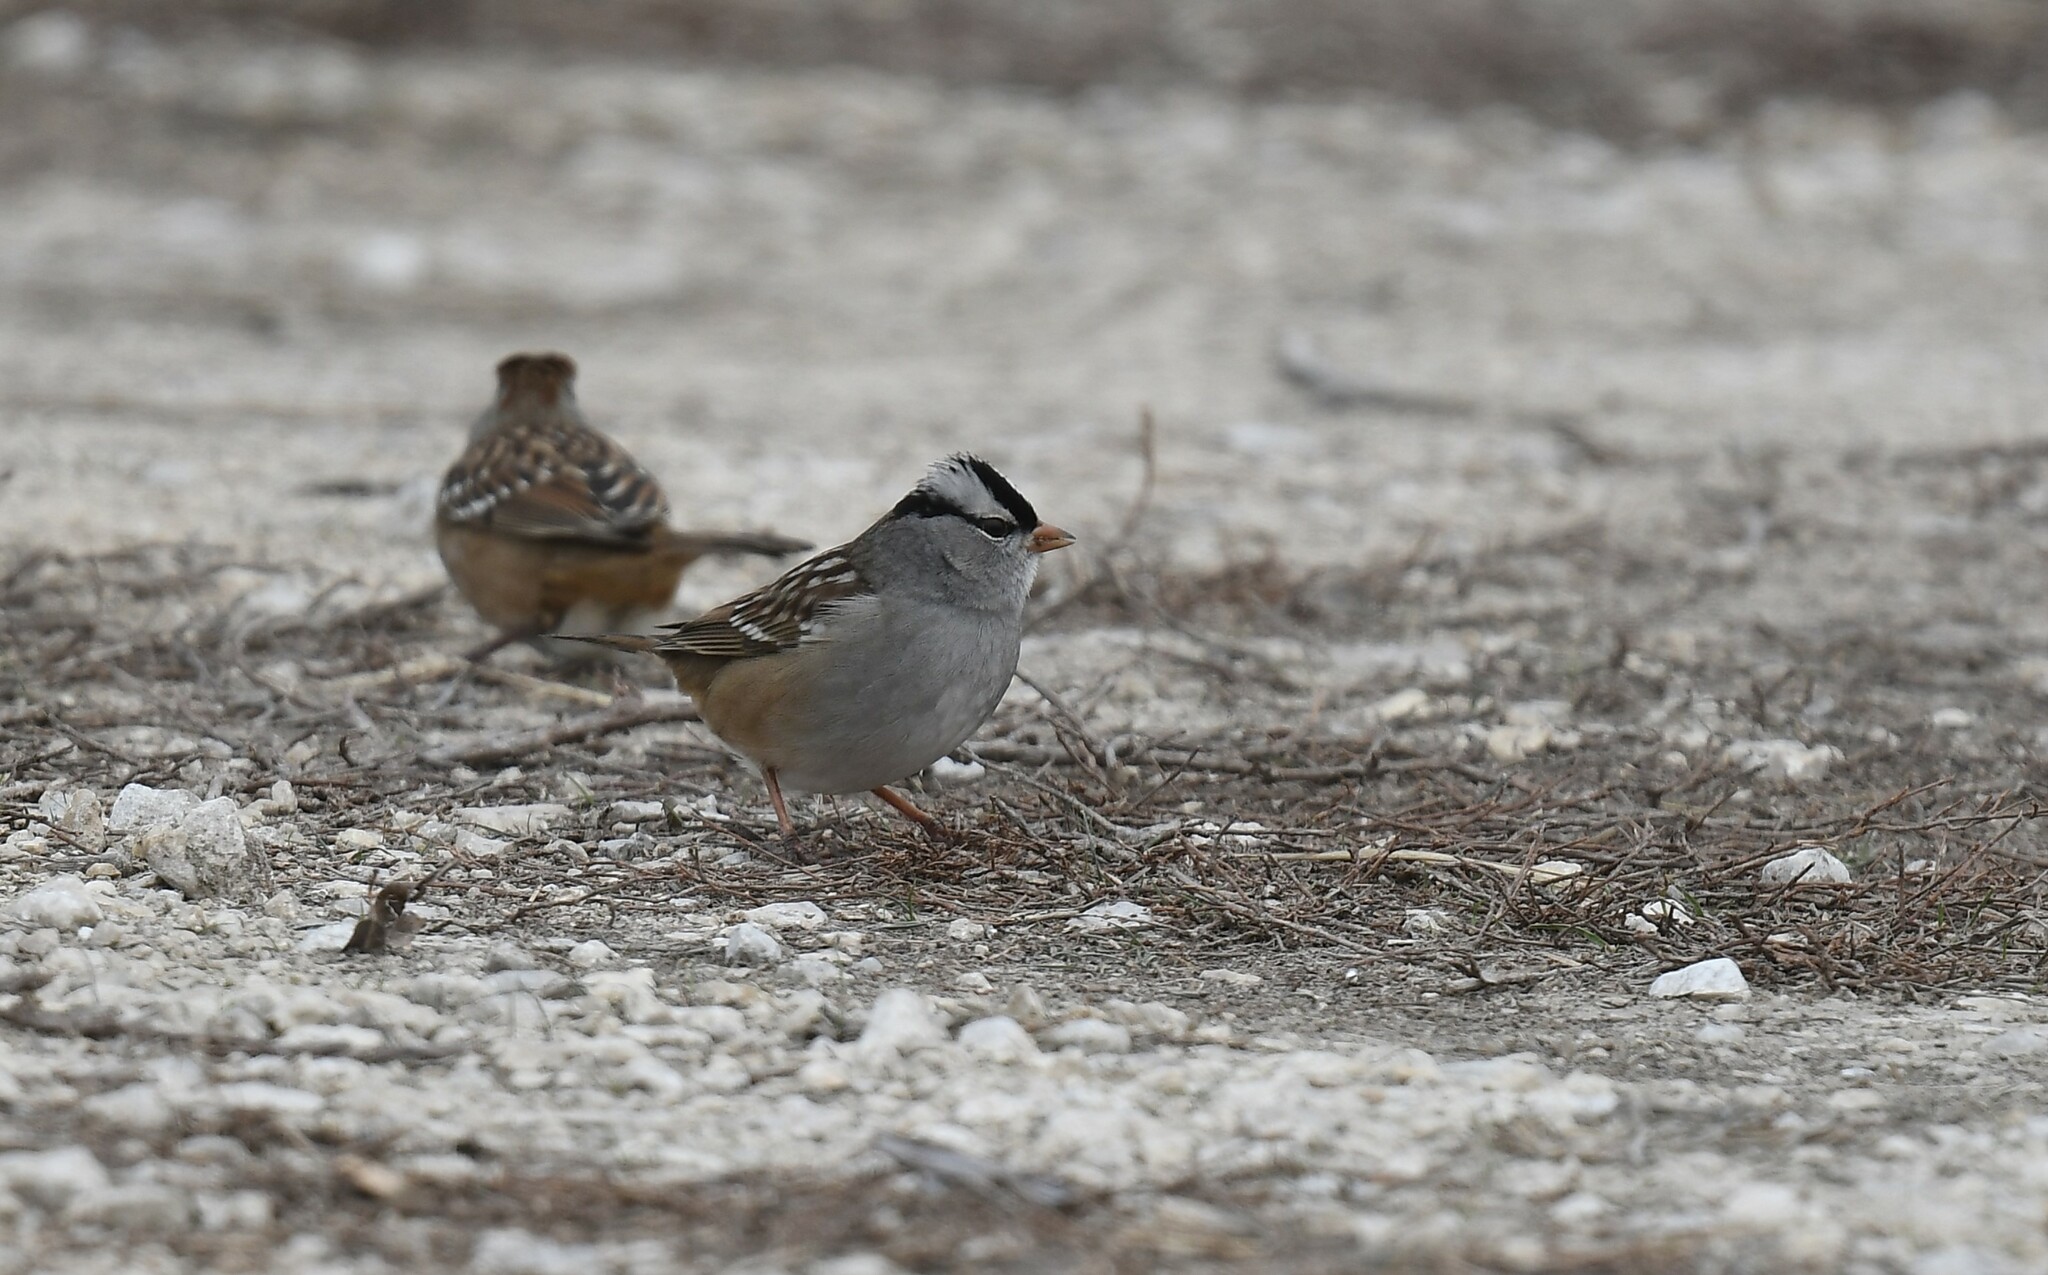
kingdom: Animalia
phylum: Chordata
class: Aves
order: Passeriformes
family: Passerellidae
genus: Zonotrichia
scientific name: Zonotrichia leucophrys
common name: White-crowned sparrow
